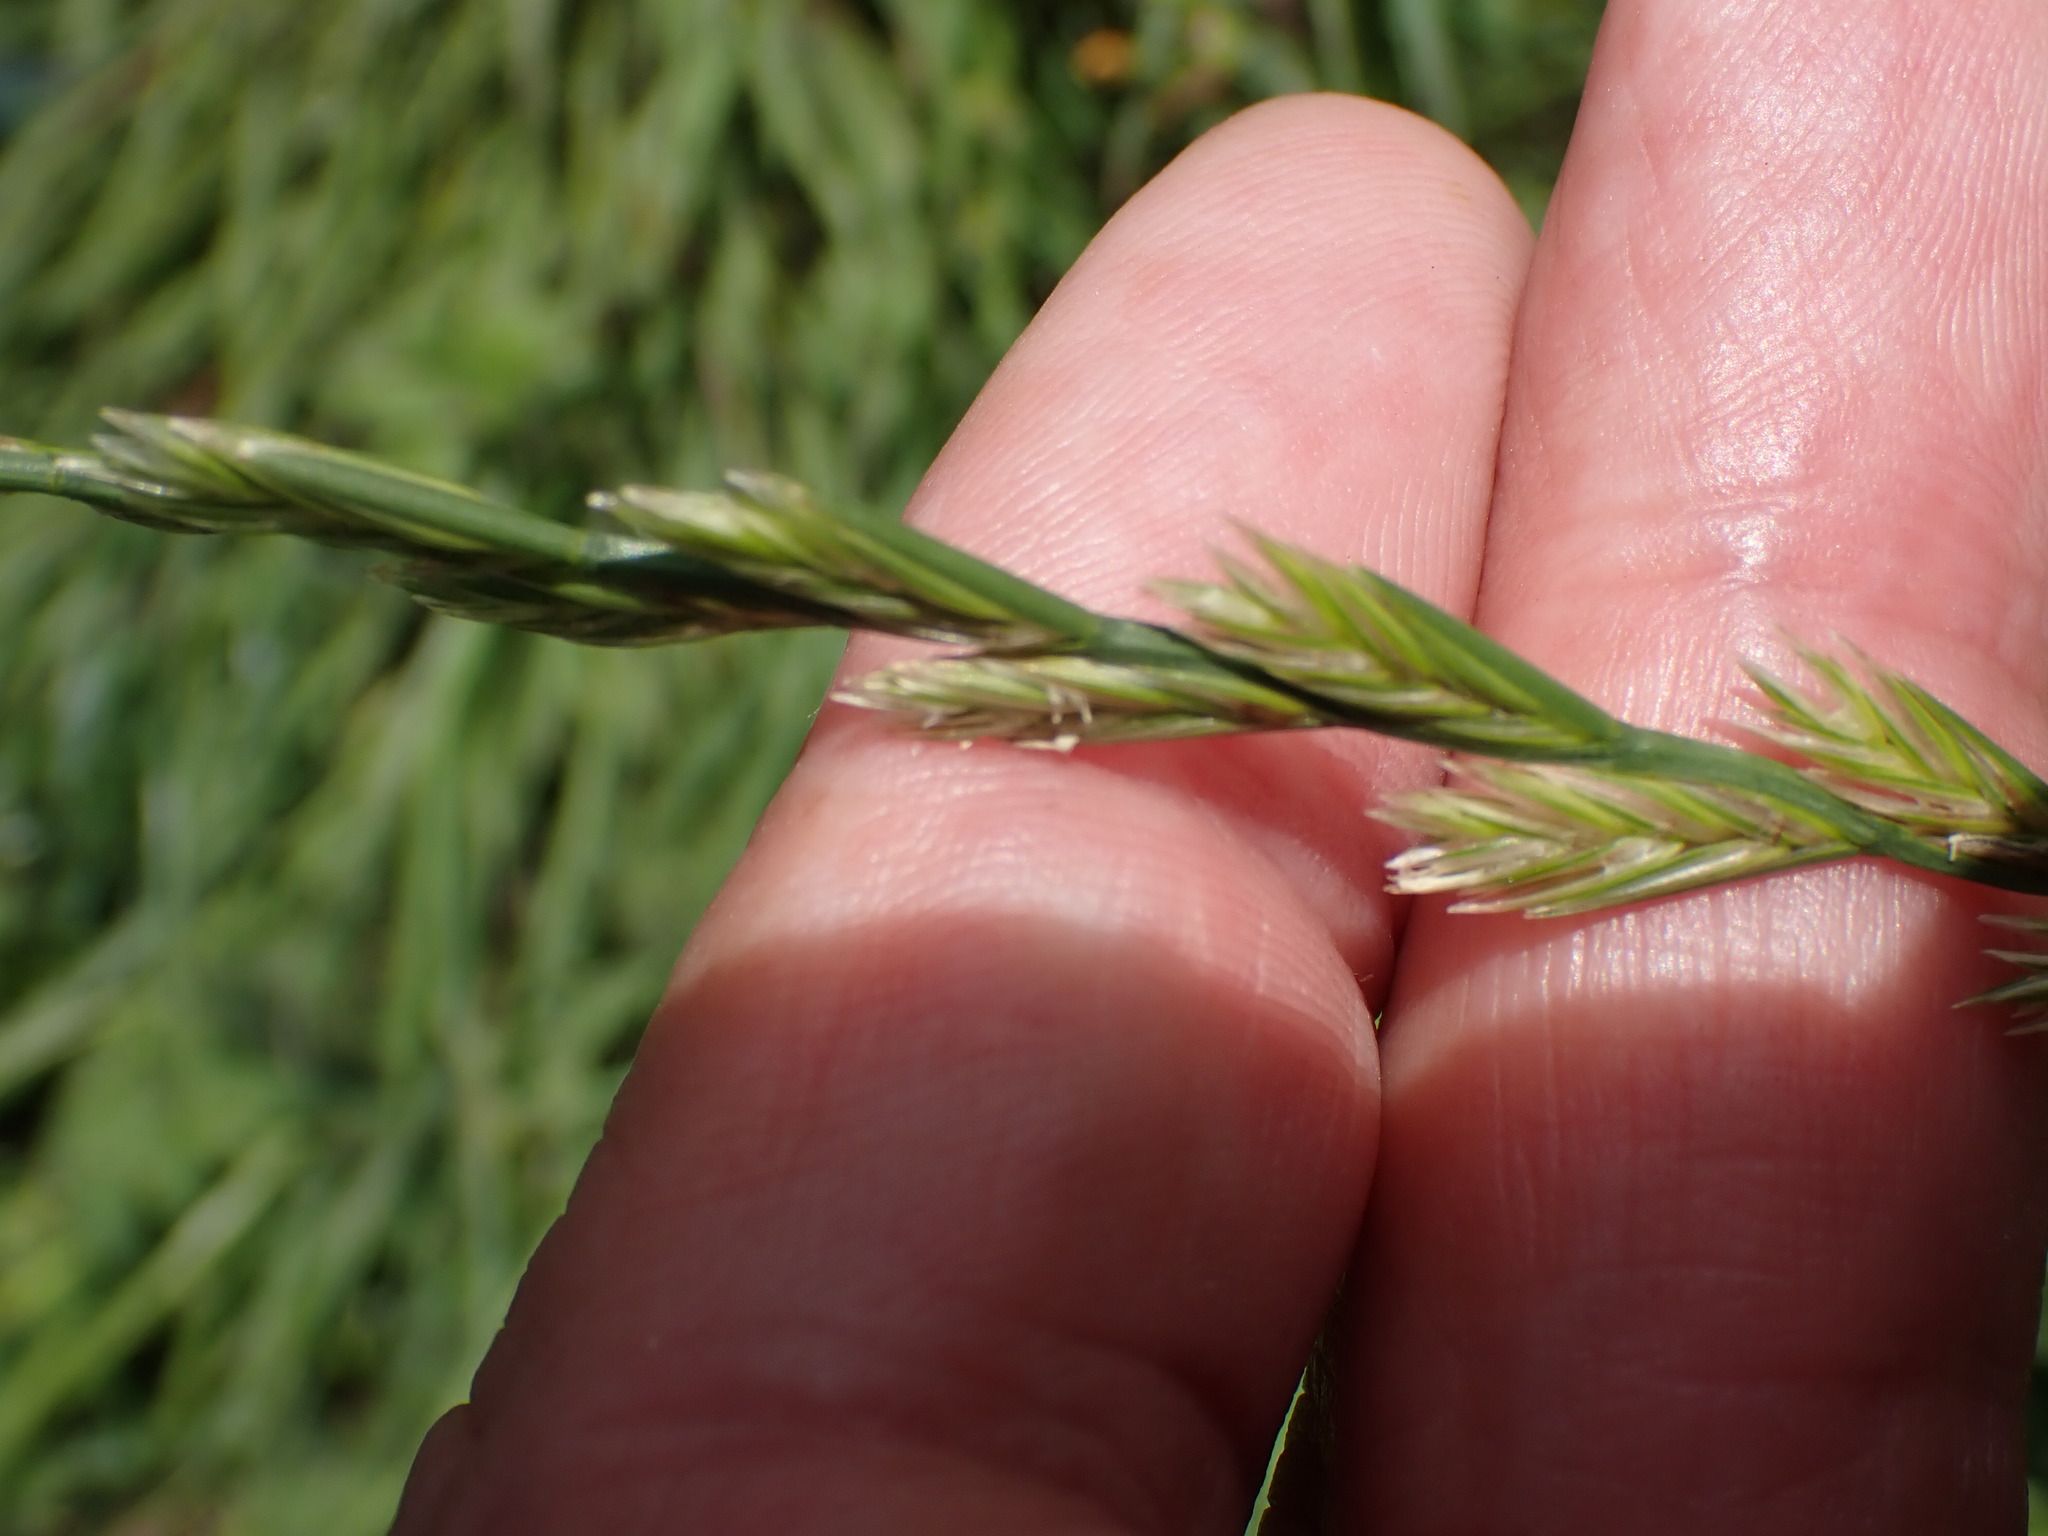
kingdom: Plantae
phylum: Tracheophyta
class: Liliopsida
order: Poales
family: Poaceae
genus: Lolium
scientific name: Lolium perenne
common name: Perennial ryegrass
